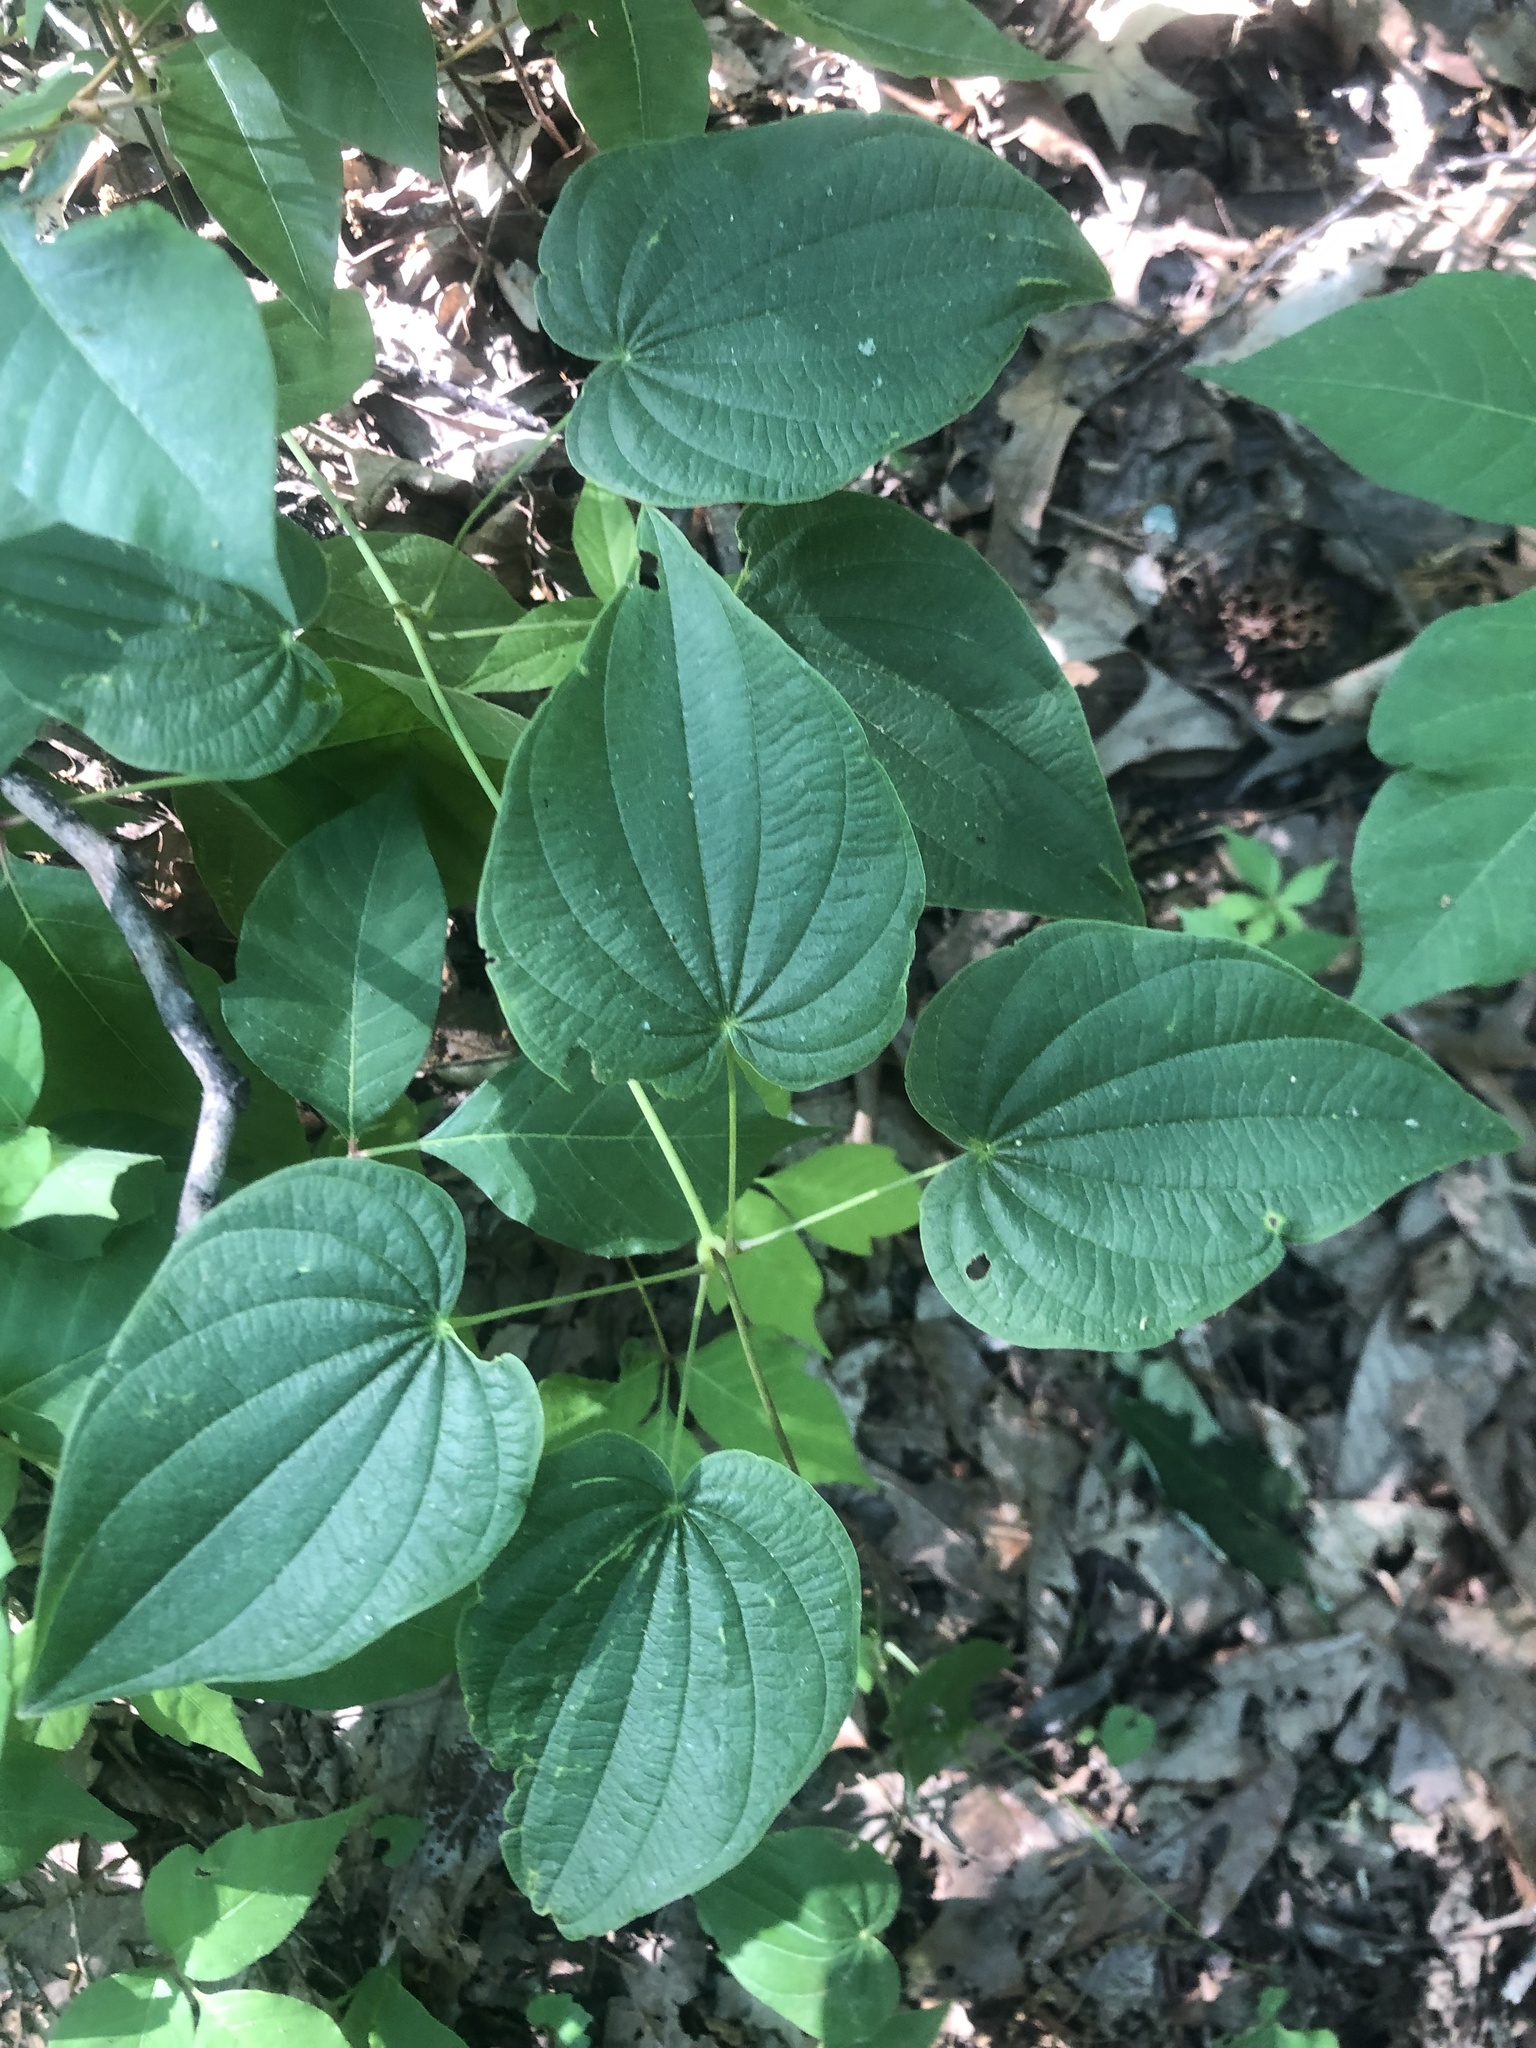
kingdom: Plantae
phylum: Tracheophyta
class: Liliopsida
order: Dioscoreales
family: Dioscoreaceae
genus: Dioscorea
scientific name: Dioscorea villosa
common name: Wild yam
